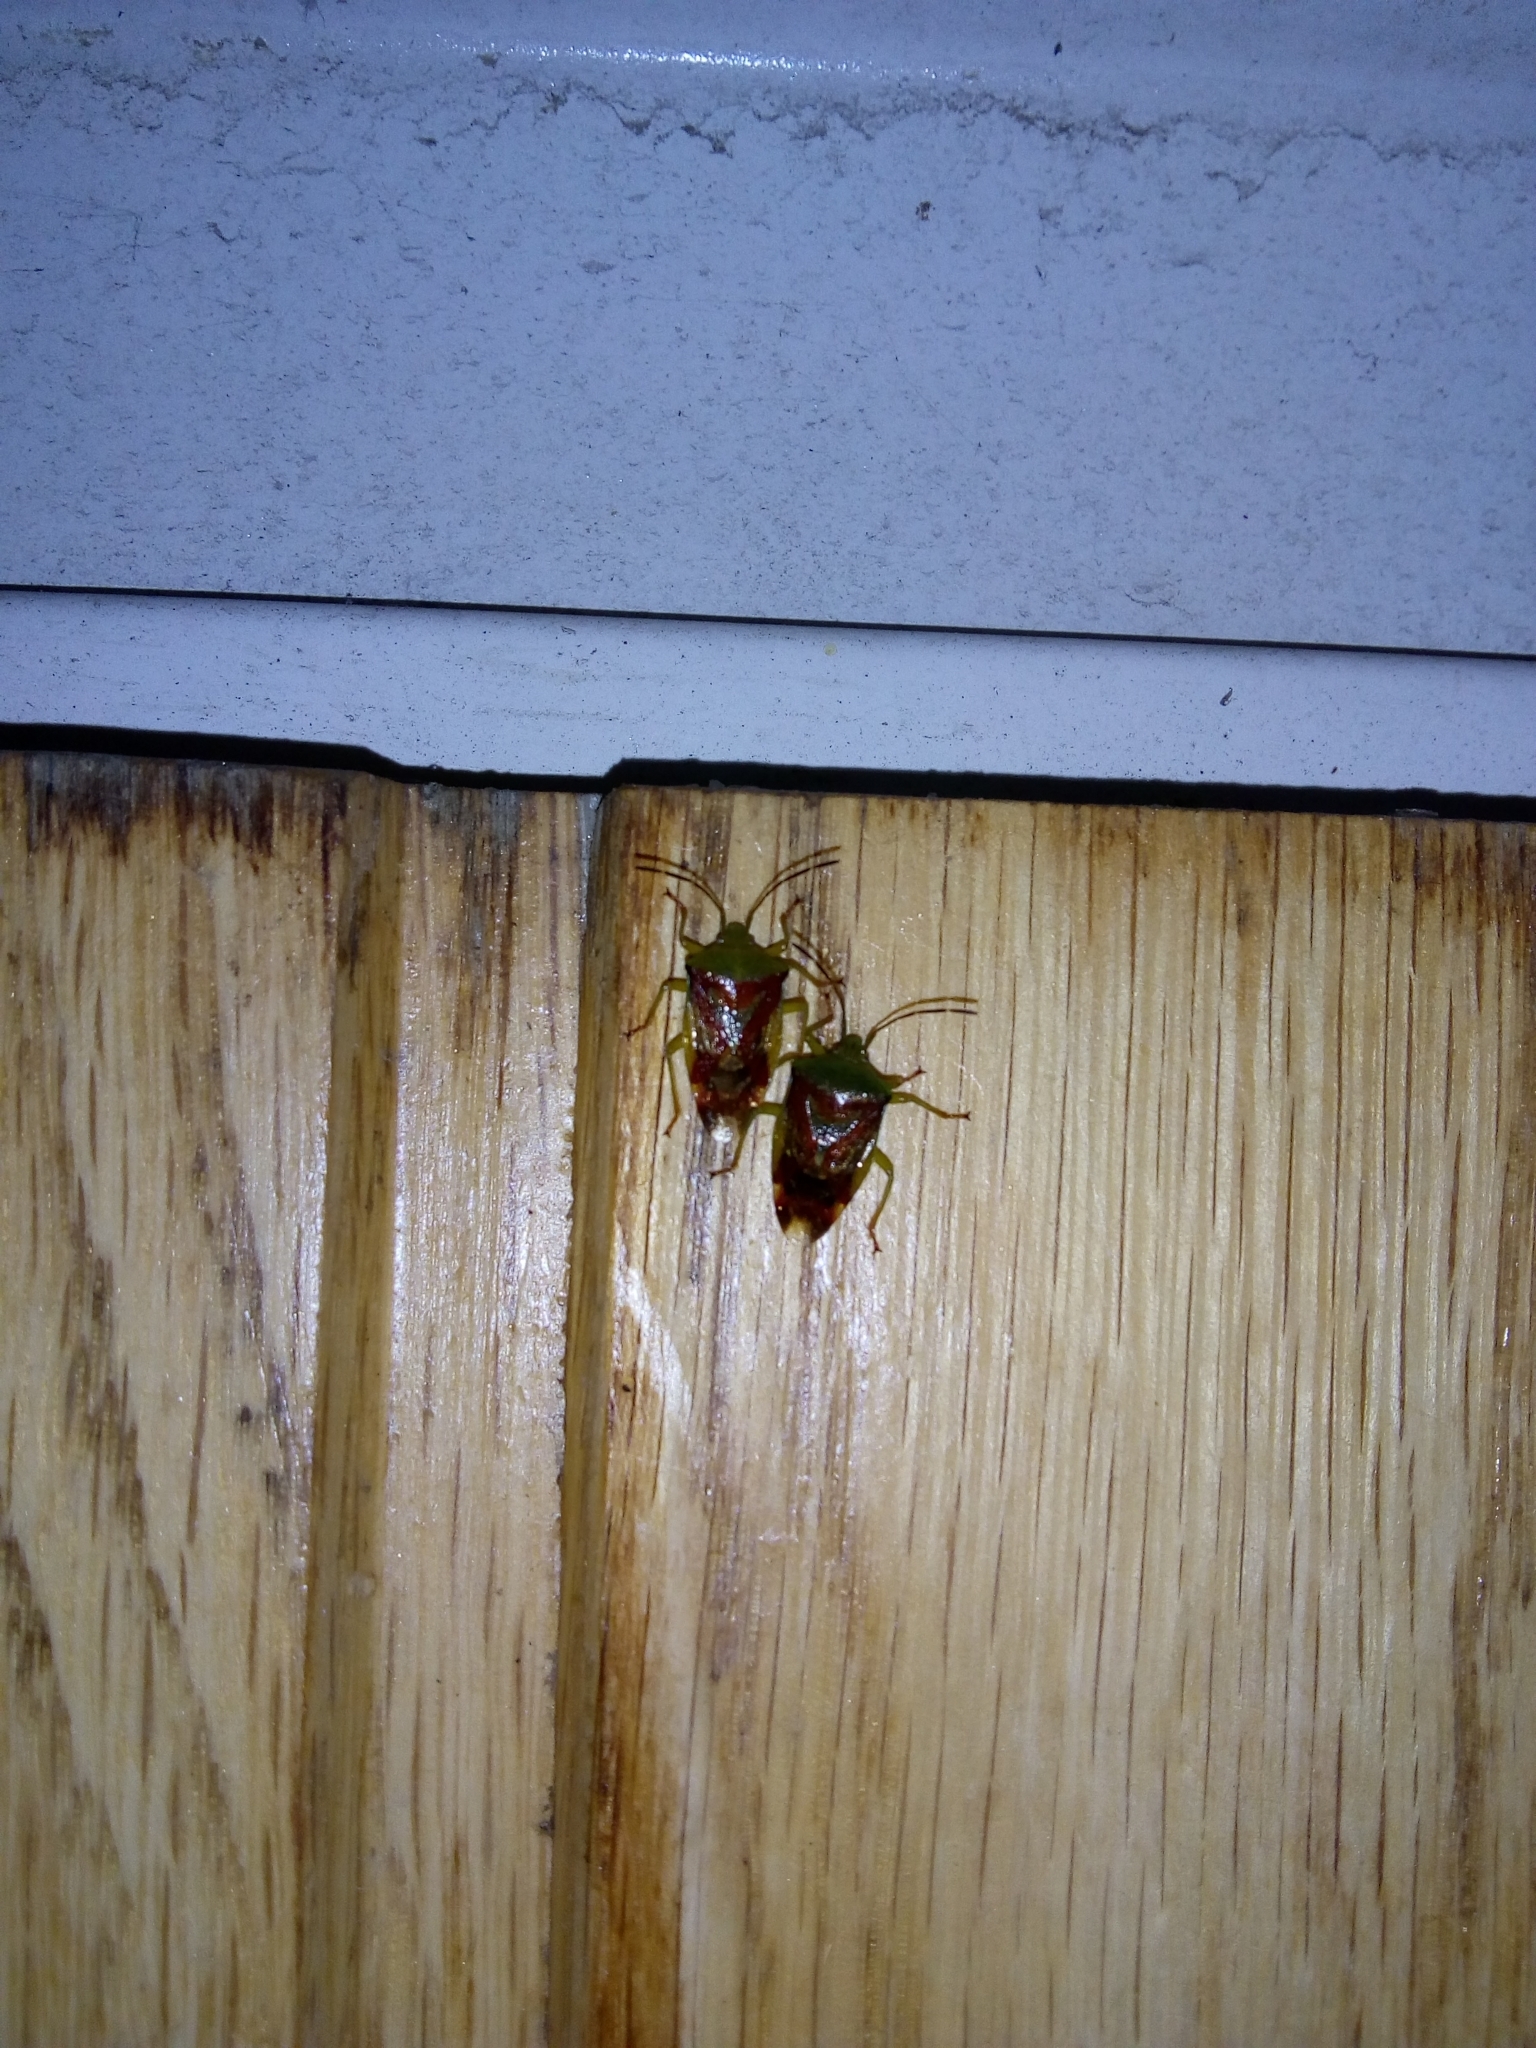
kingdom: Animalia
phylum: Arthropoda
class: Insecta
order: Hemiptera
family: Acanthosomatidae
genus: Elasmostethus
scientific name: Elasmostethus
